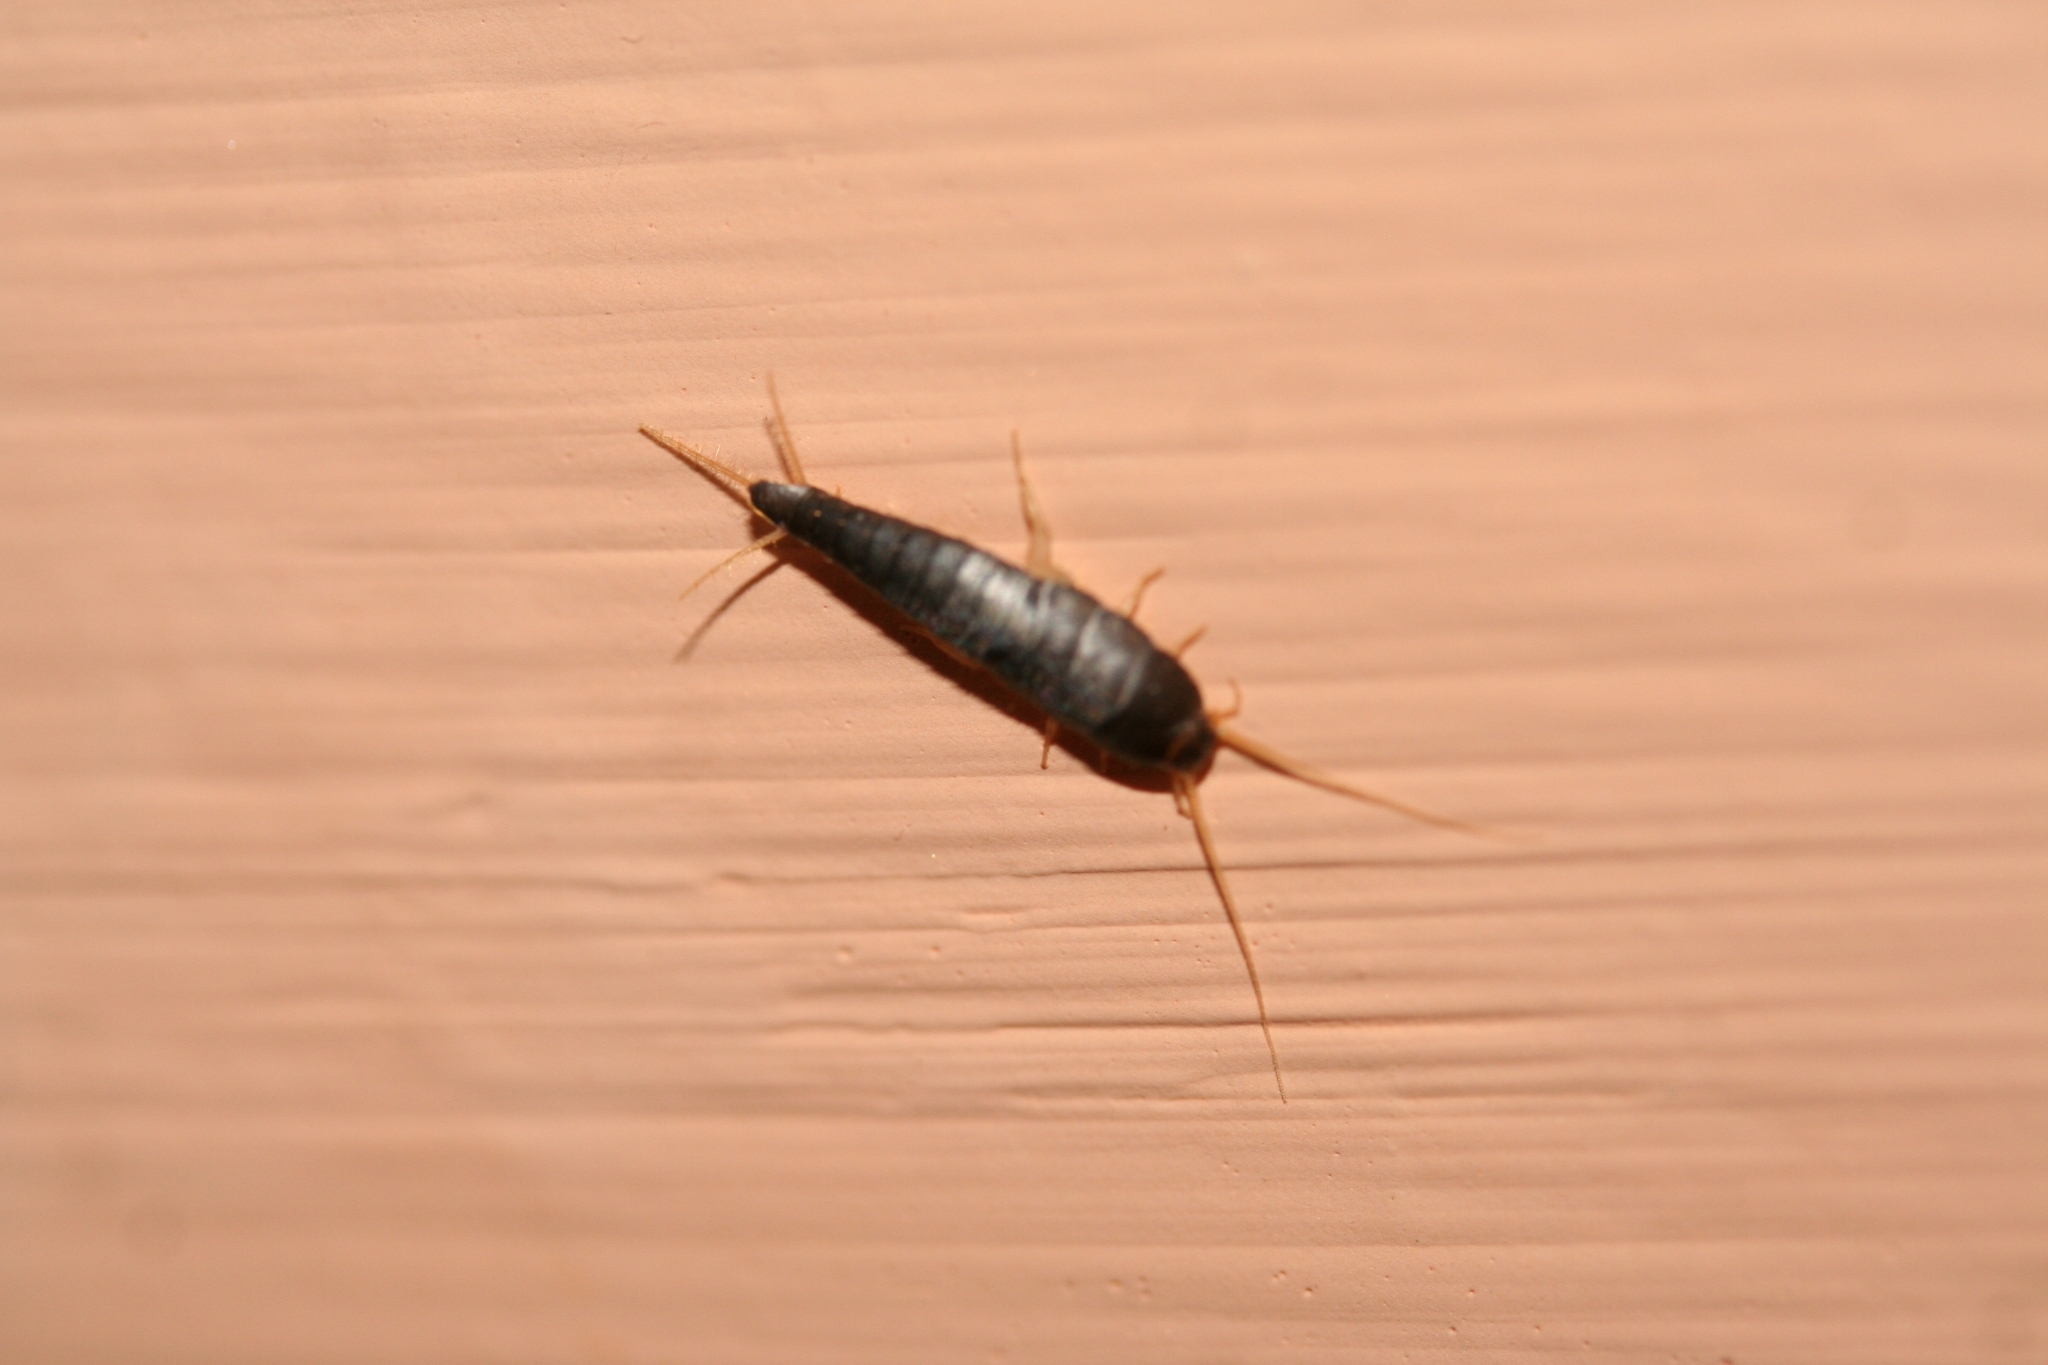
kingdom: Animalia
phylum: Arthropoda
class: Insecta
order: Zygentoma
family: Lepismatidae
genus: Lepisma
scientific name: Lepisma saccharinum
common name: Silverfish
